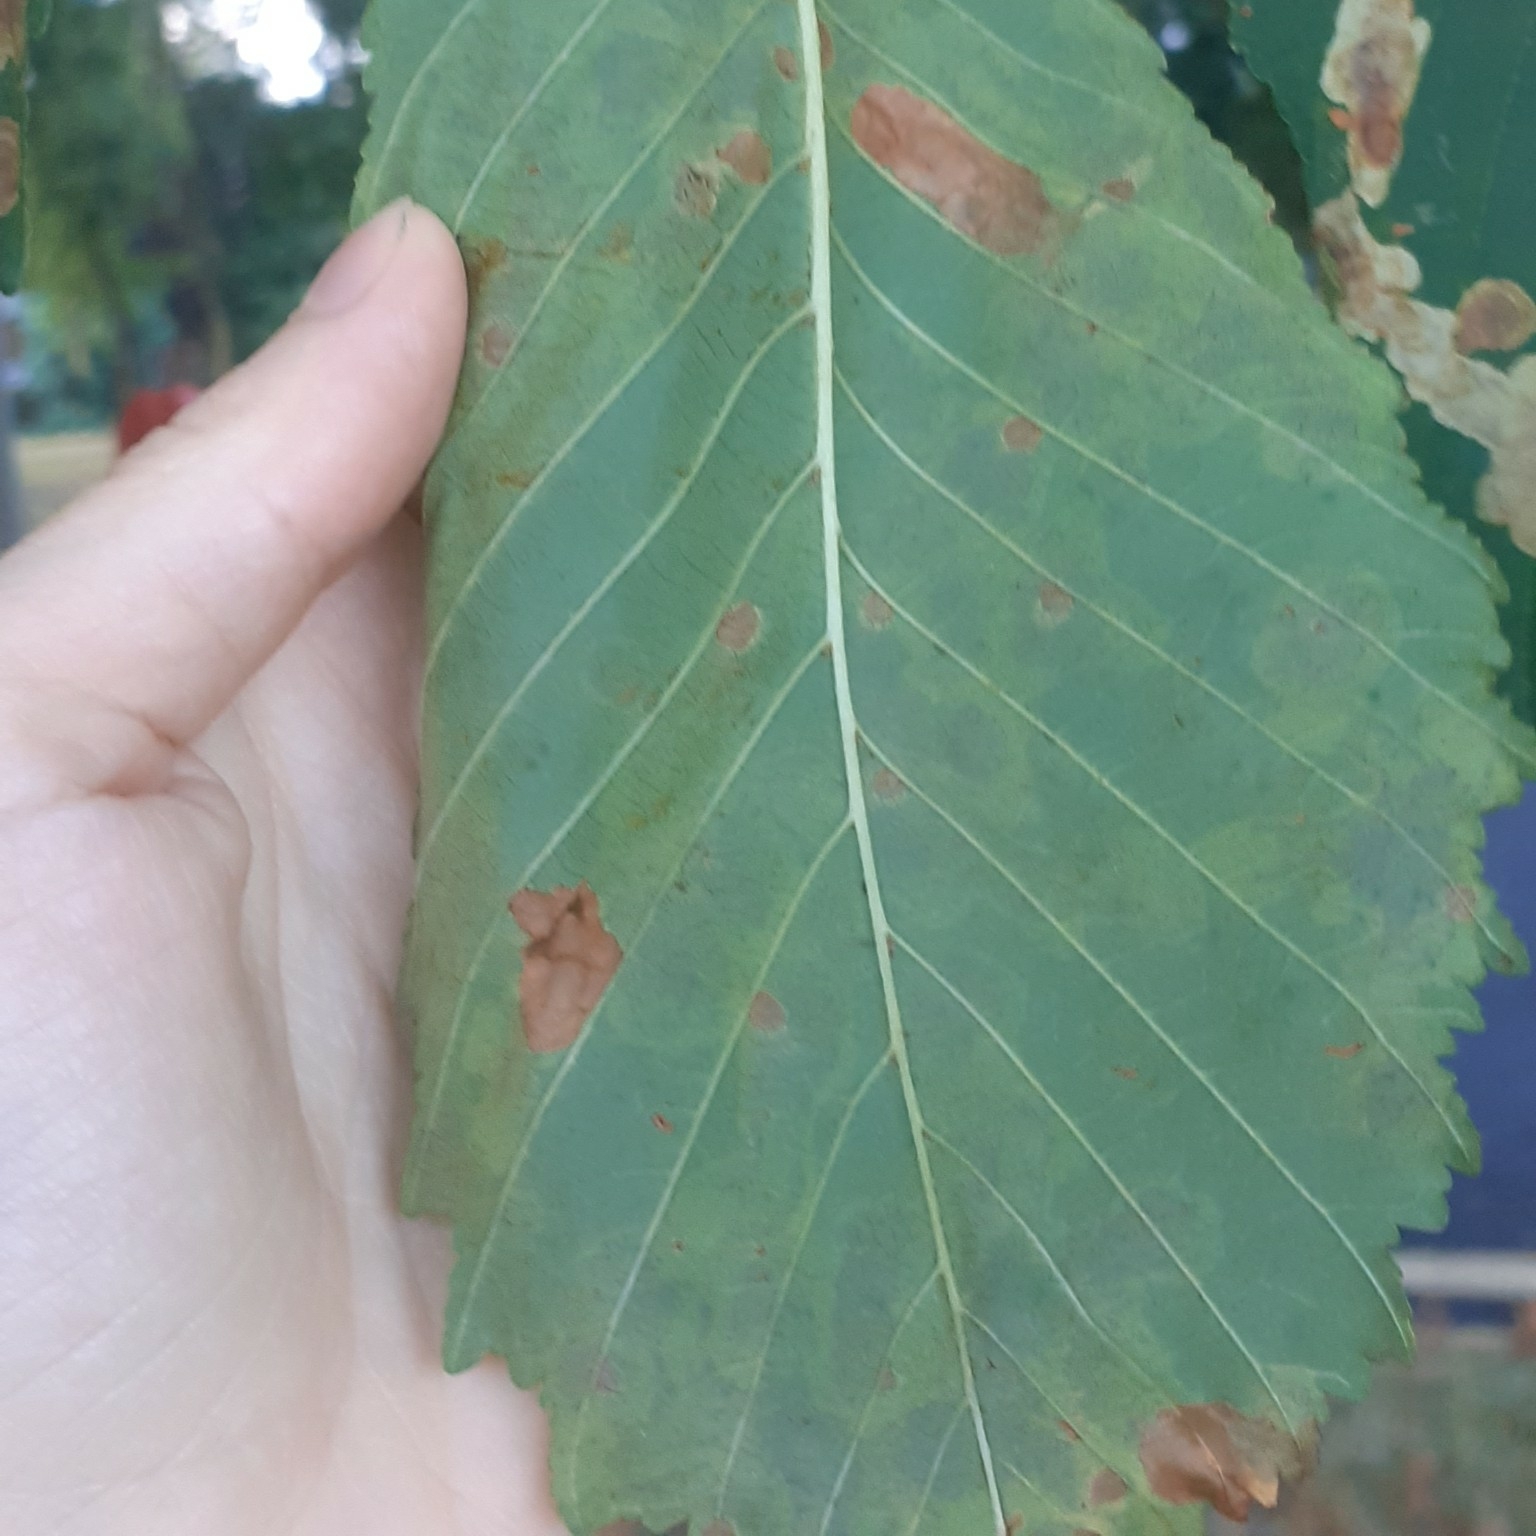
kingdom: Animalia
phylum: Arthropoda
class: Insecta
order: Lepidoptera
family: Gracillariidae
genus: Cameraria
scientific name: Cameraria ohridella
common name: Horse-chestnut leaf-miner
